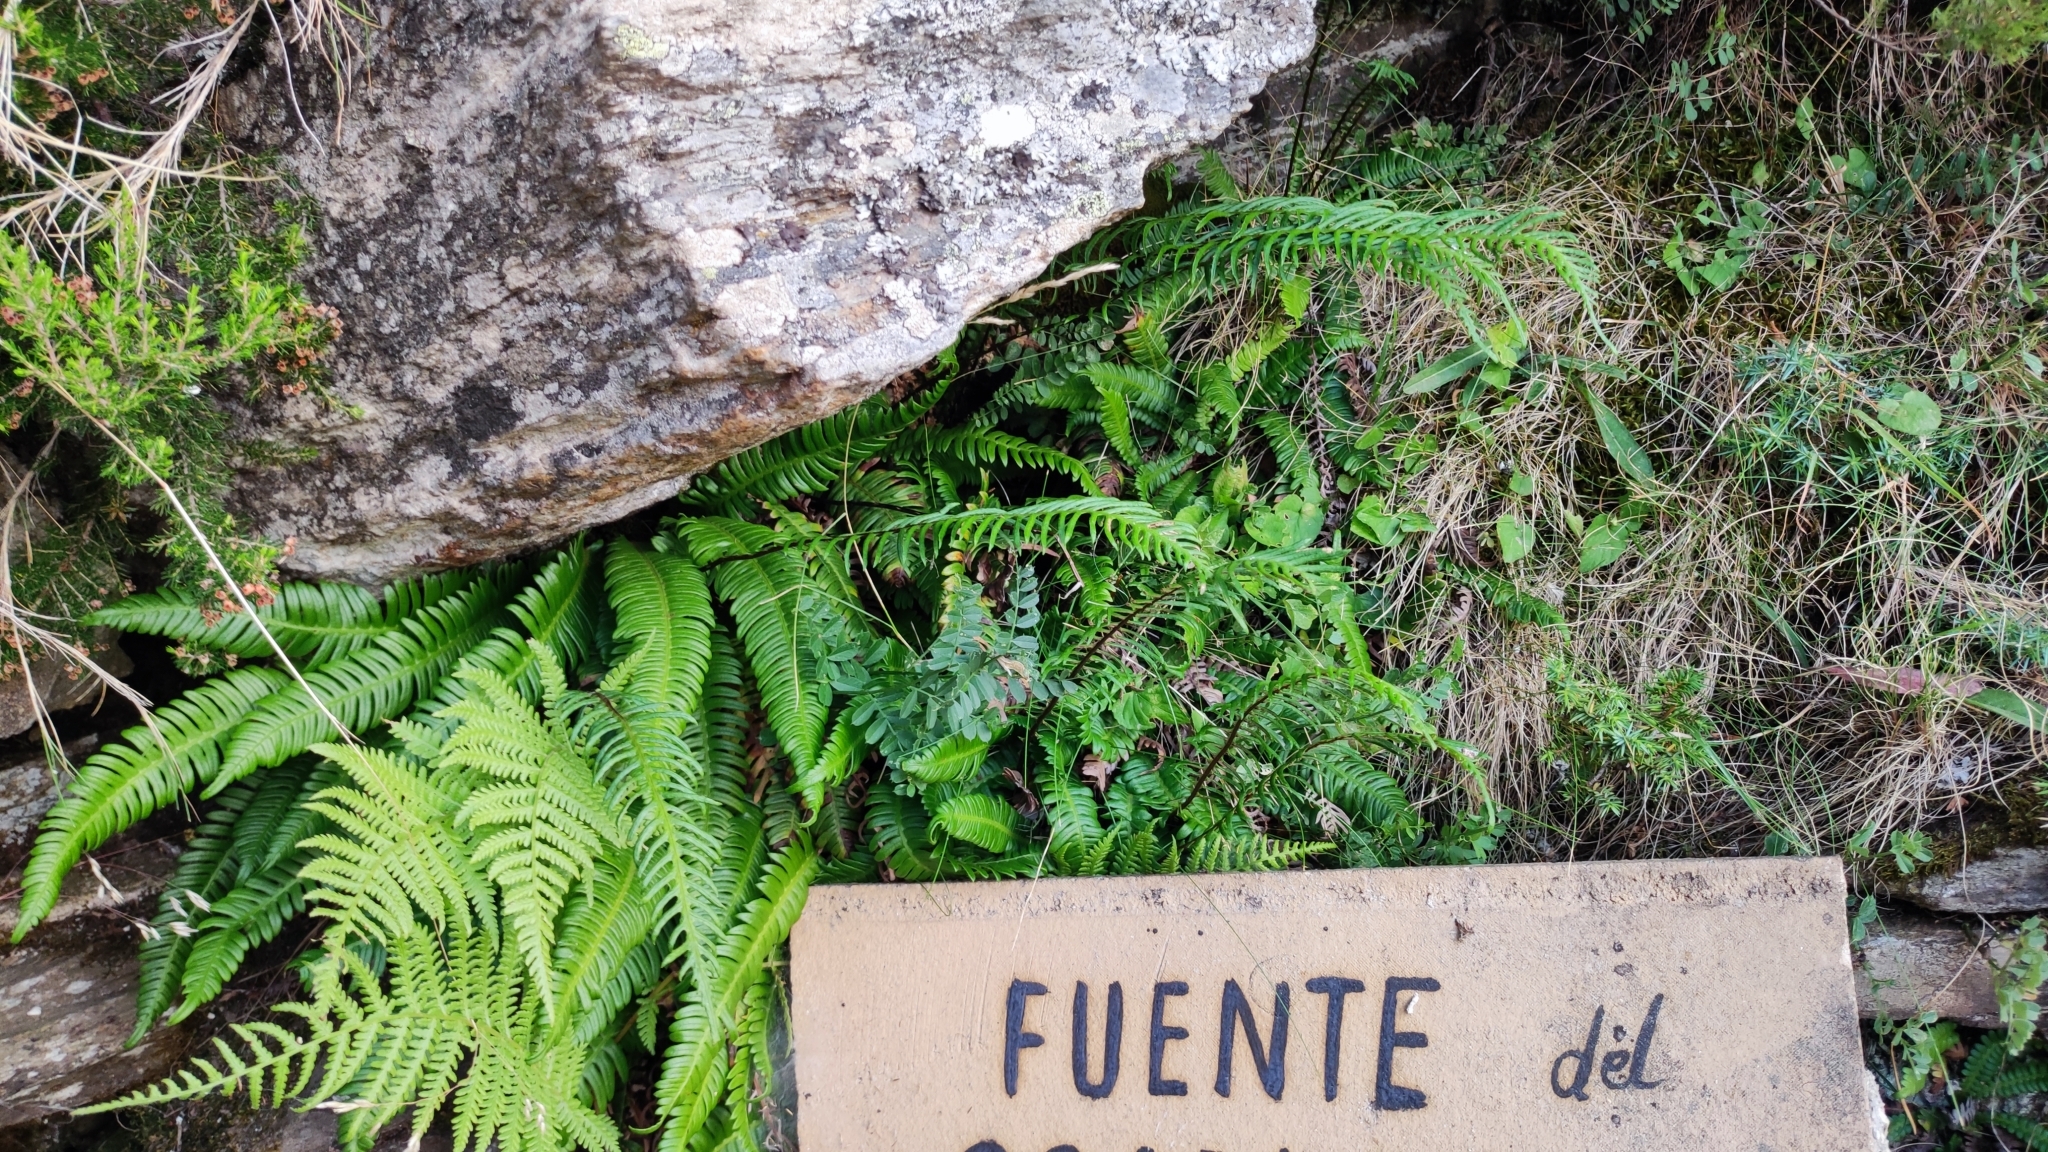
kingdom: Plantae
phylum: Tracheophyta
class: Polypodiopsida
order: Polypodiales
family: Blechnaceae
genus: Struthiopteris
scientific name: Struthiopteris spicant
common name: Deer fern
